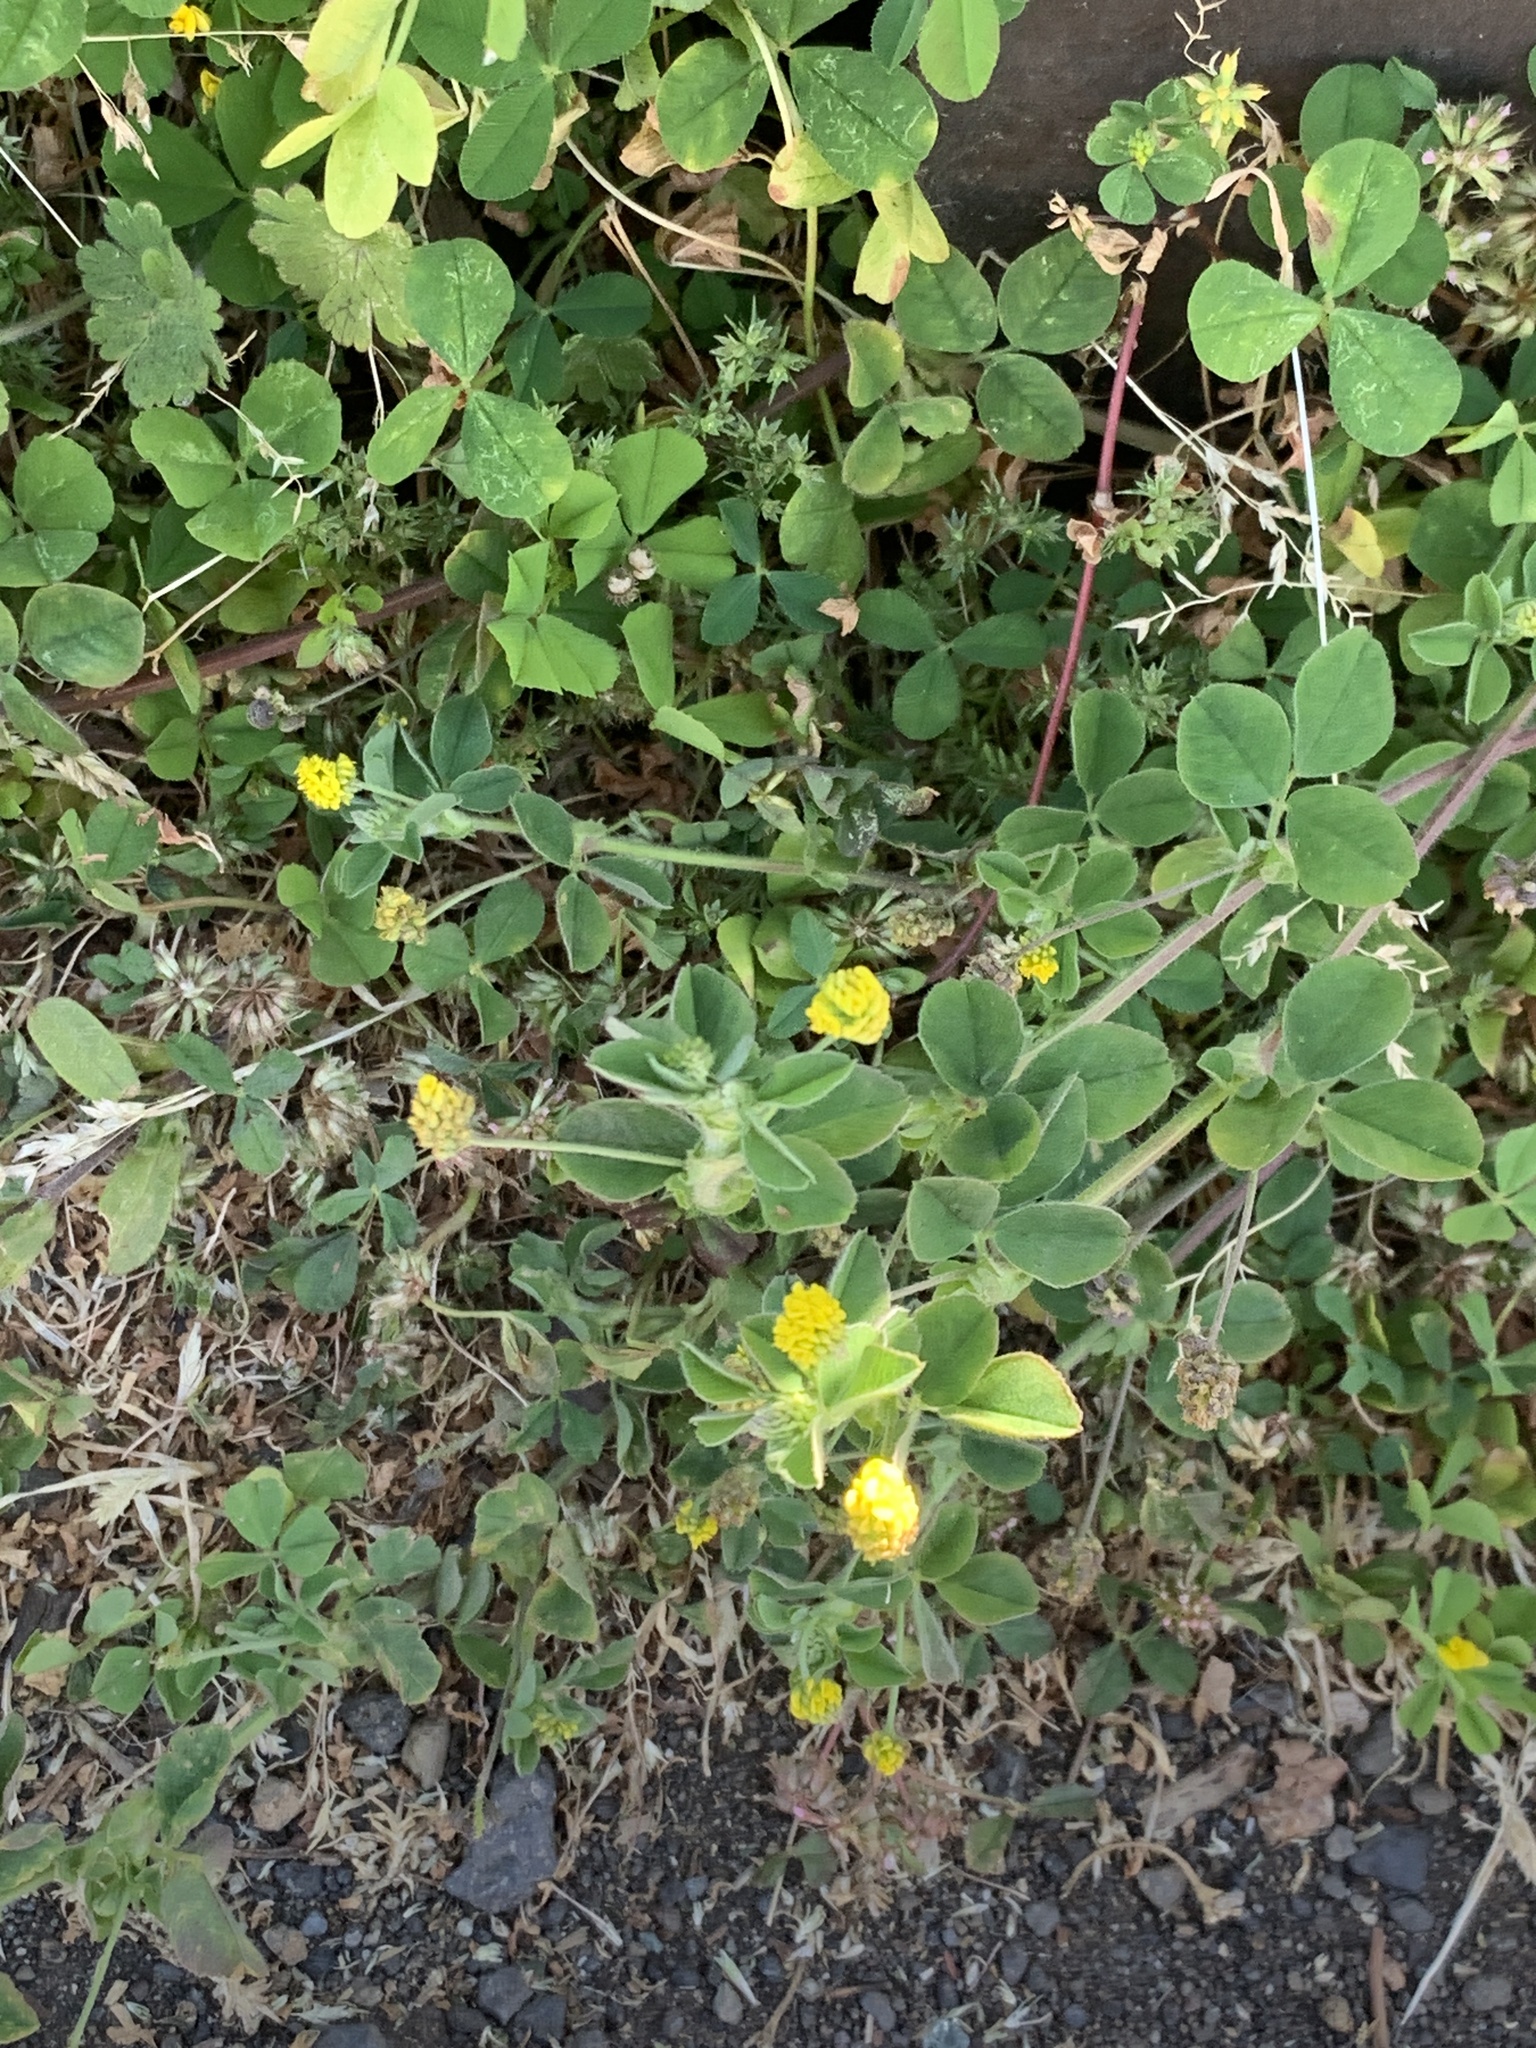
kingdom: Plantae
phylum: Tracheophyta
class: Magnoliopsida
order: Fabales
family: Fabaceae
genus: Medicago
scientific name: Medicago lupulina
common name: Black medick
